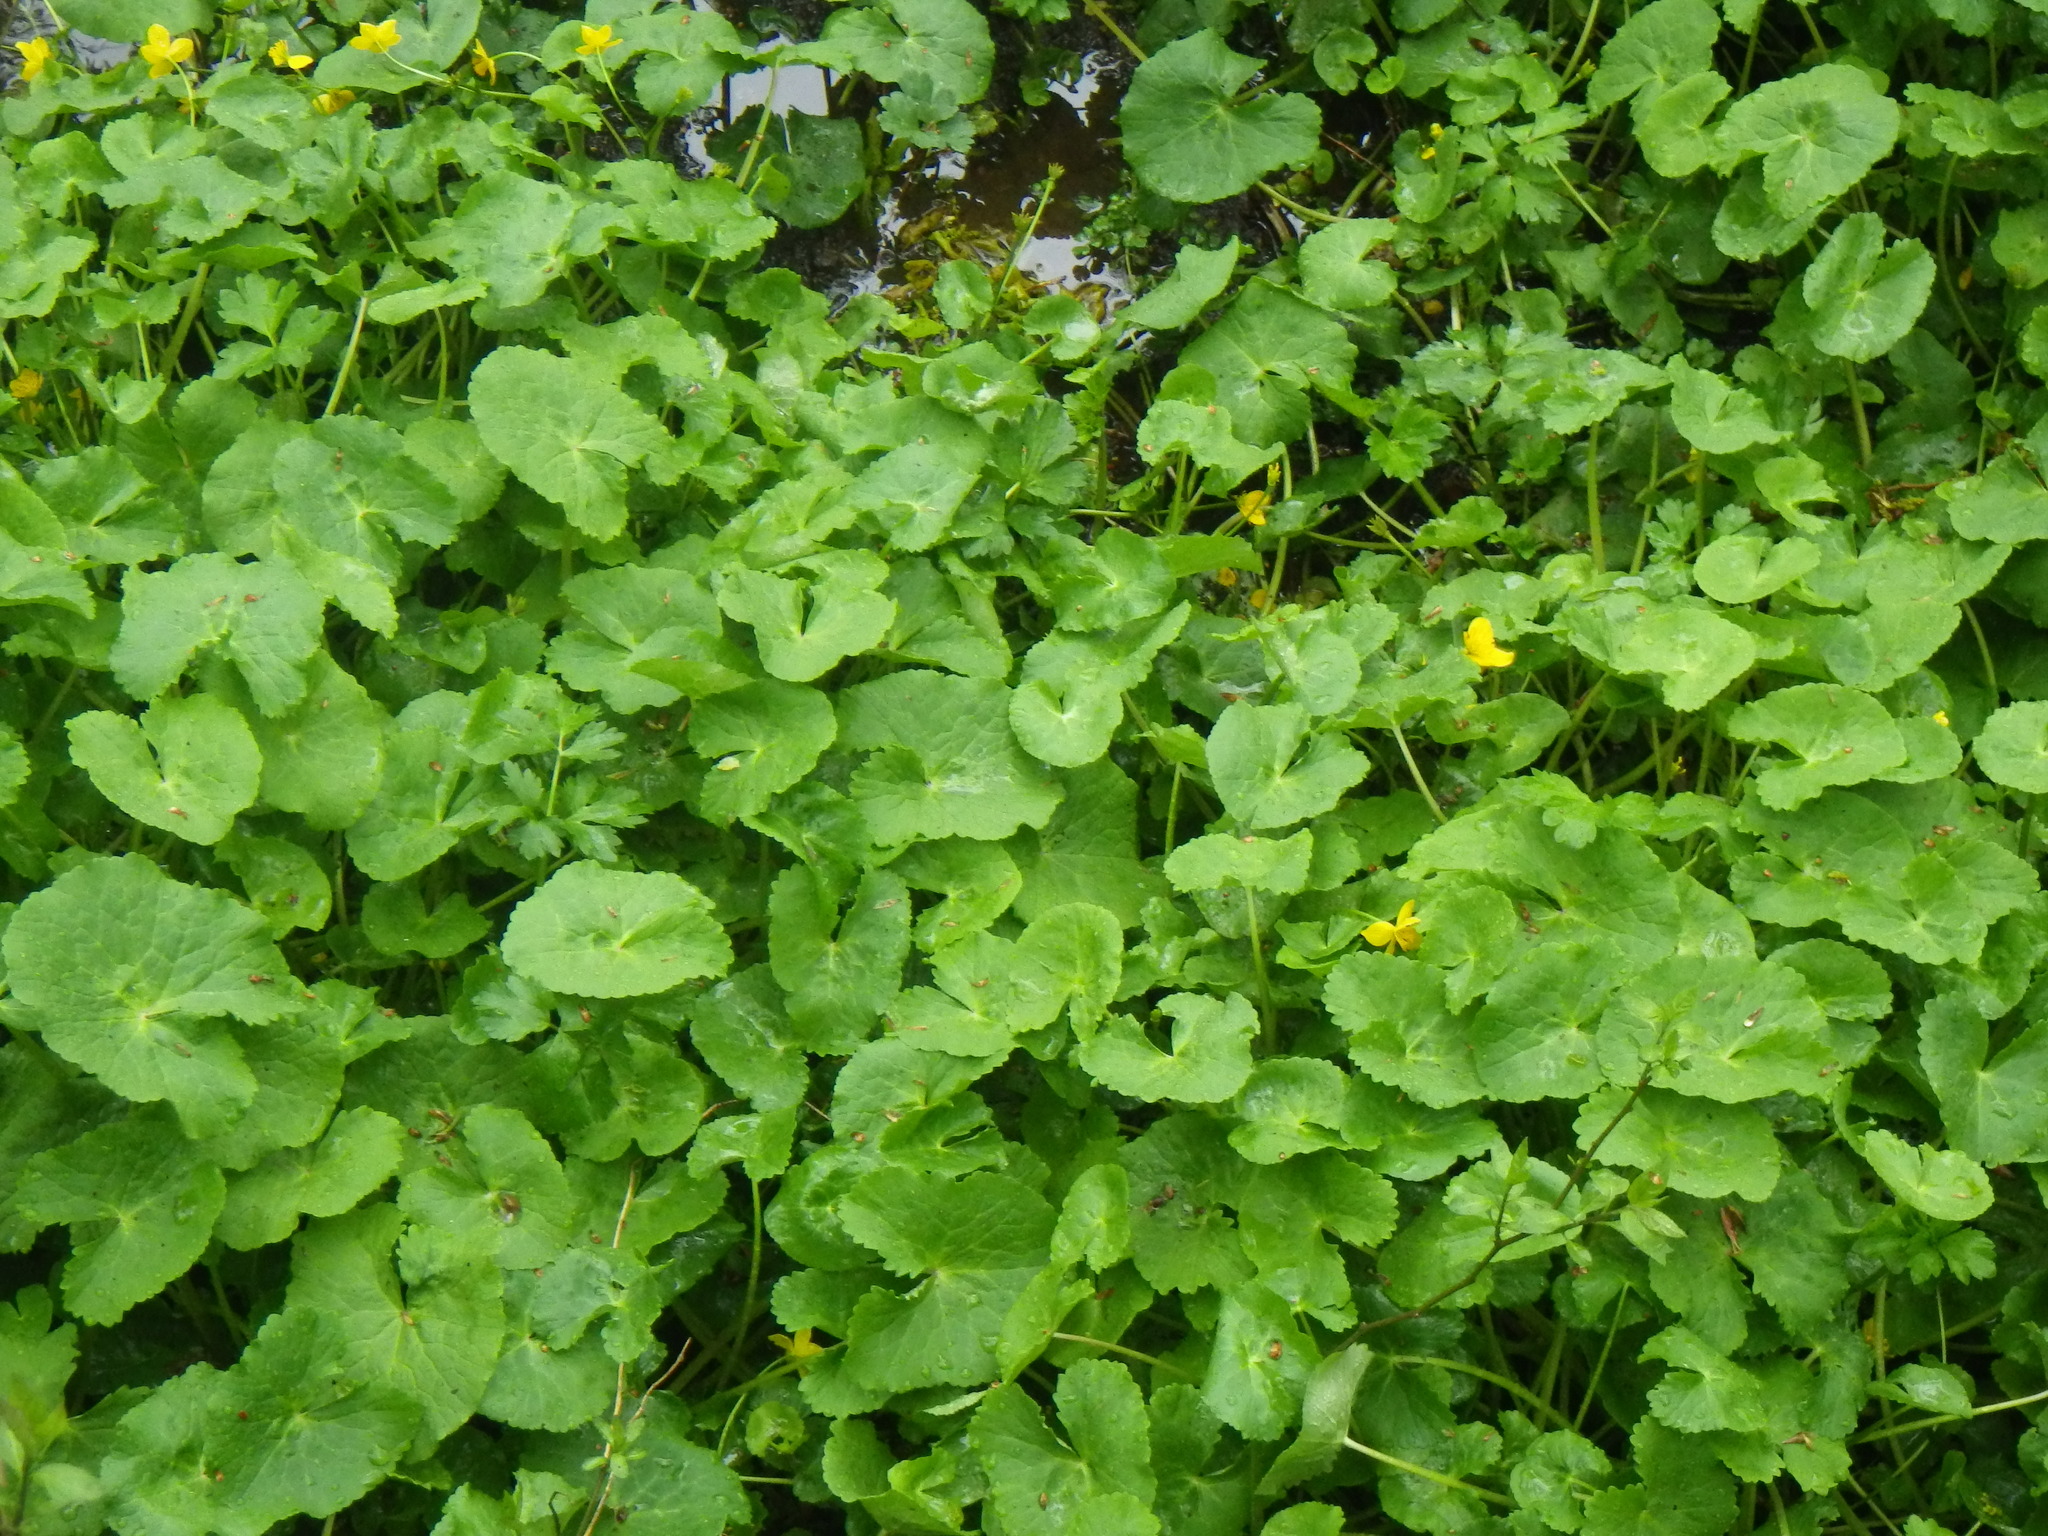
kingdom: Plantae
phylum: Tracheophyta
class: Magnoliopsida
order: Ranunculales
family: Ranunculaceae
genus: Caltha
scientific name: Caltha palustris
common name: Marsh marigold
